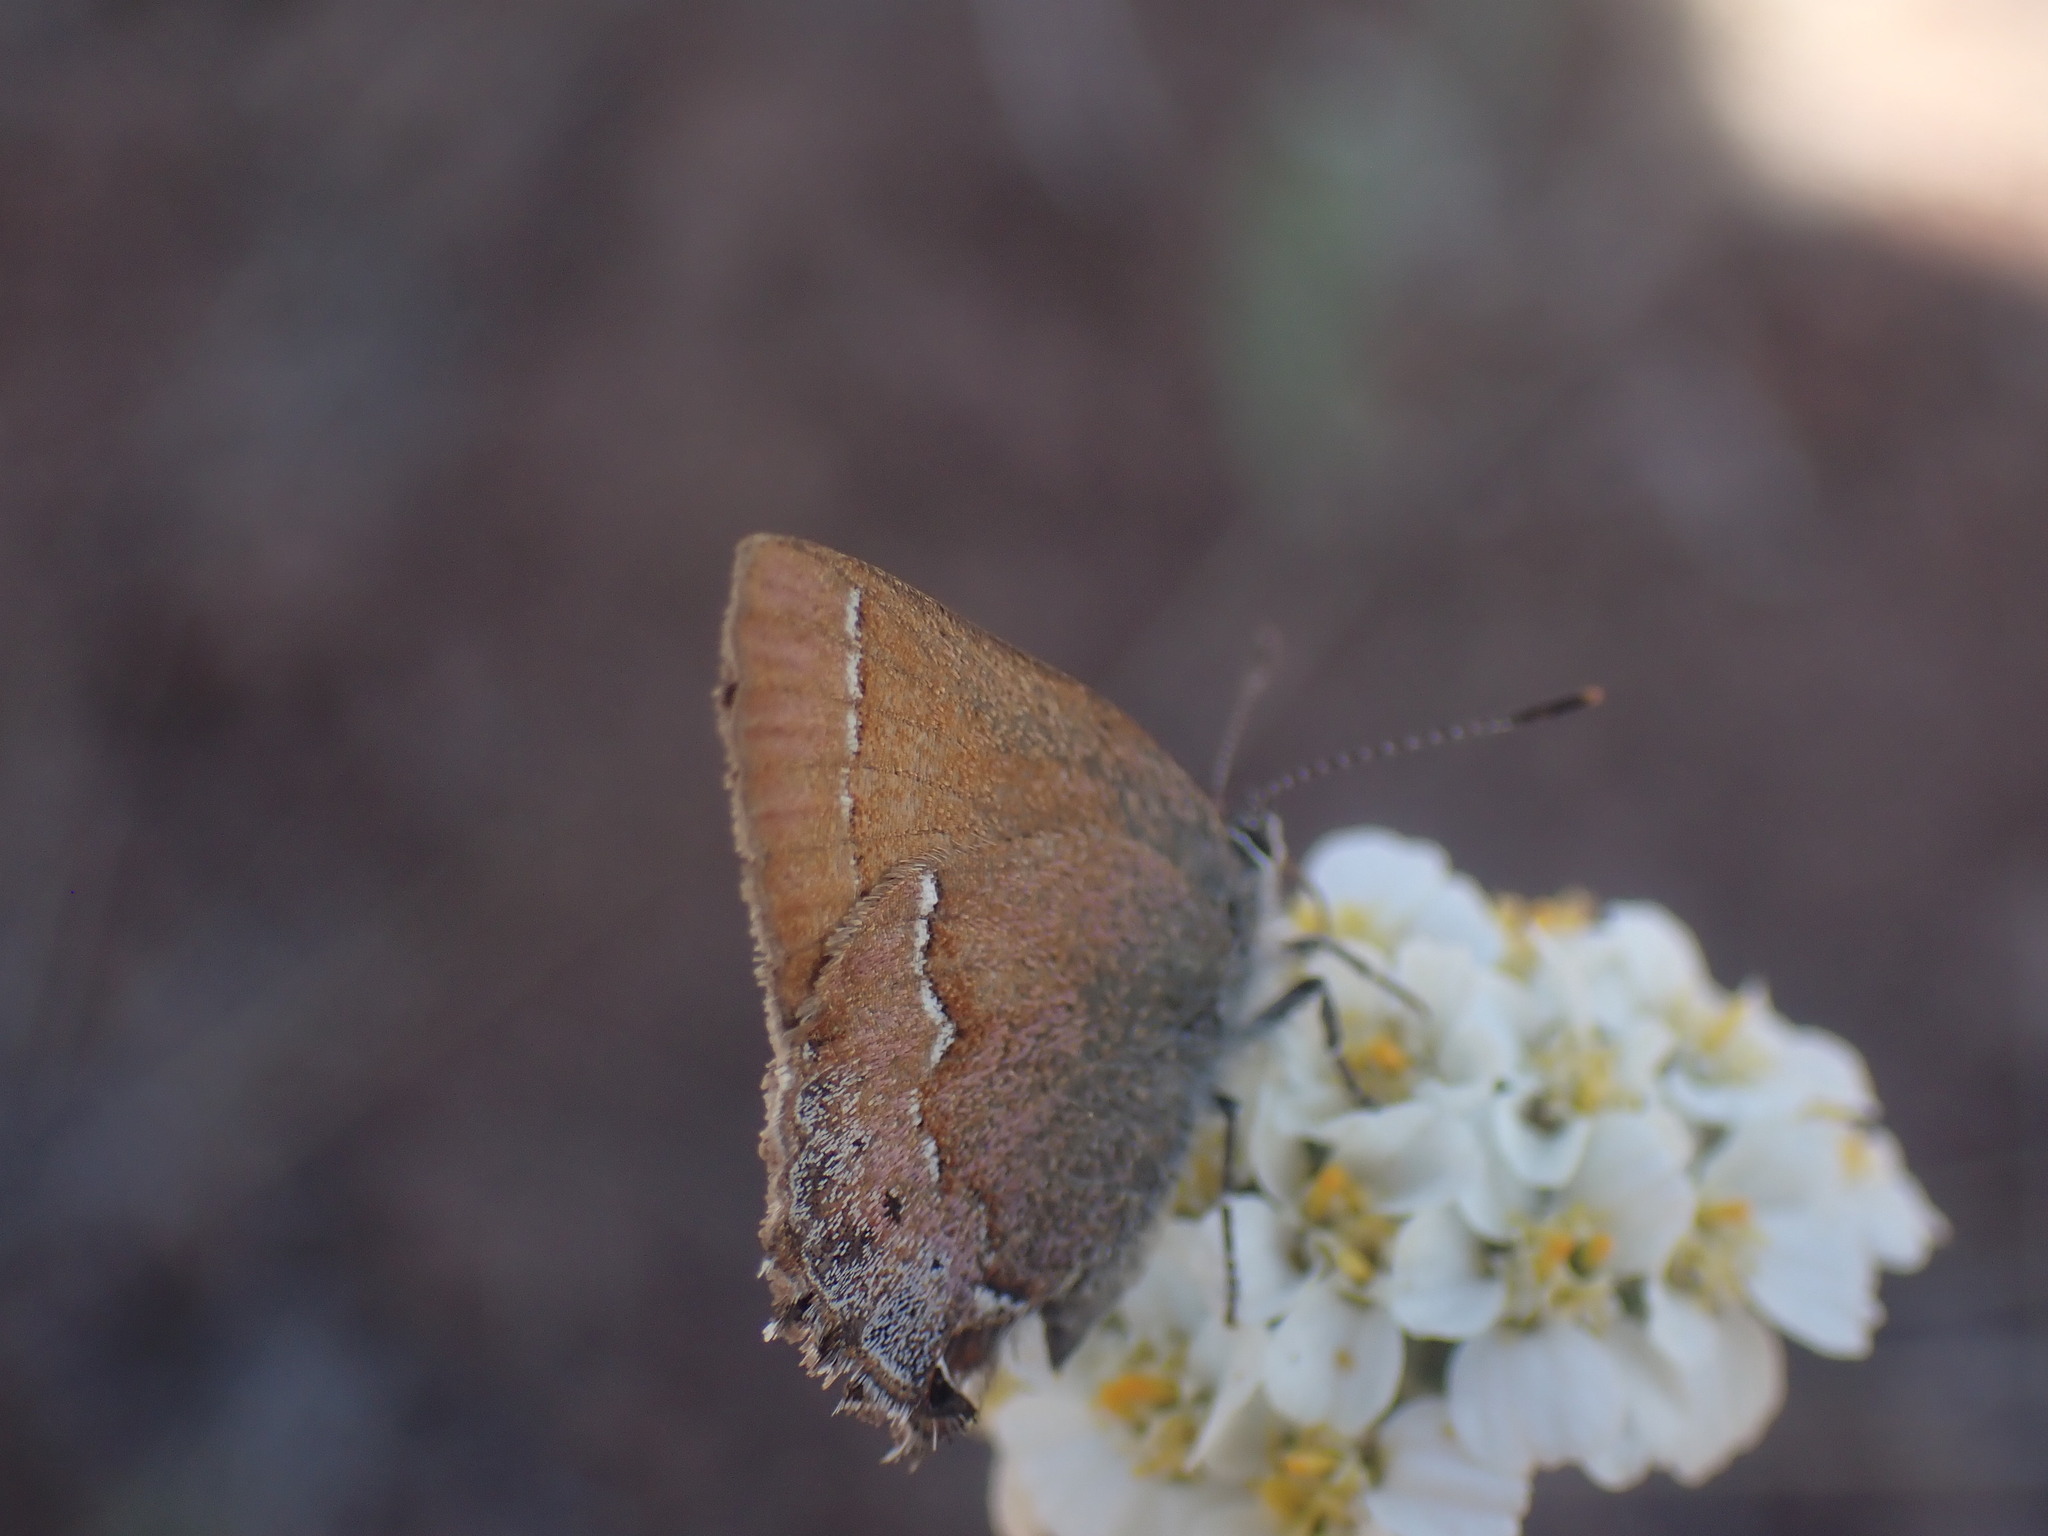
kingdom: Animalia
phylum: Arthropoda
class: Insecta
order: Lepidoptera
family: Lycaenidae
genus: Mitoura
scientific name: Mitoura gryneus
